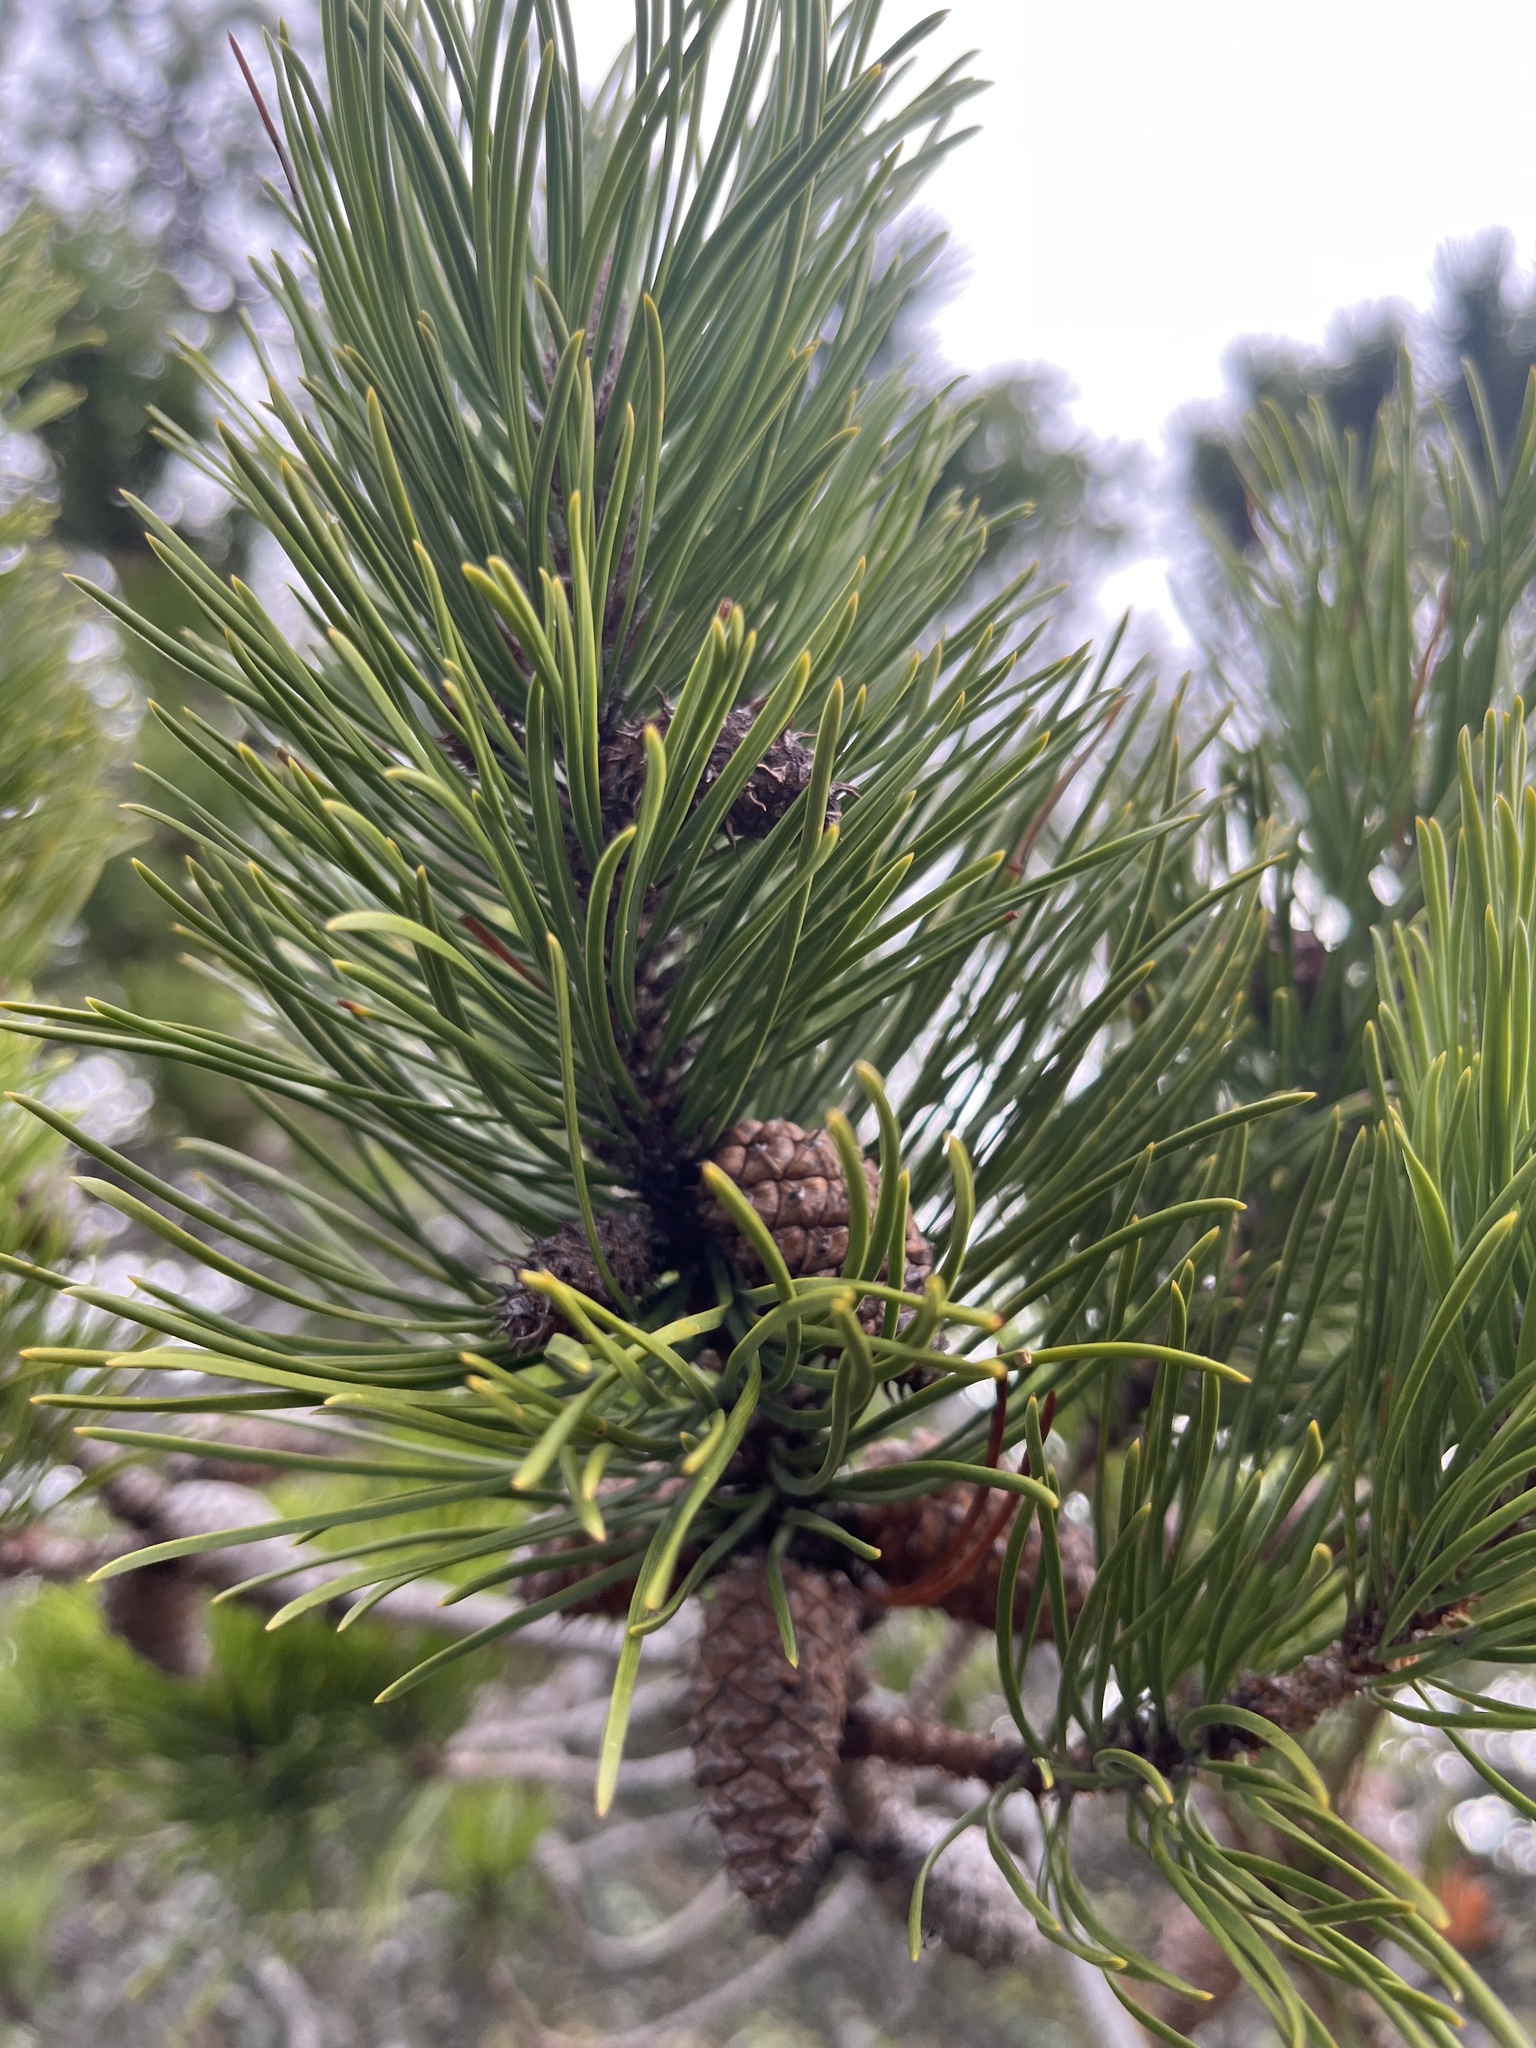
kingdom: Plantae
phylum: Tracheophyta
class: Pinopsida
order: Pinales
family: Pinaceae
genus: Pinus
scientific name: Pinus contorta
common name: Lodgepole pine
